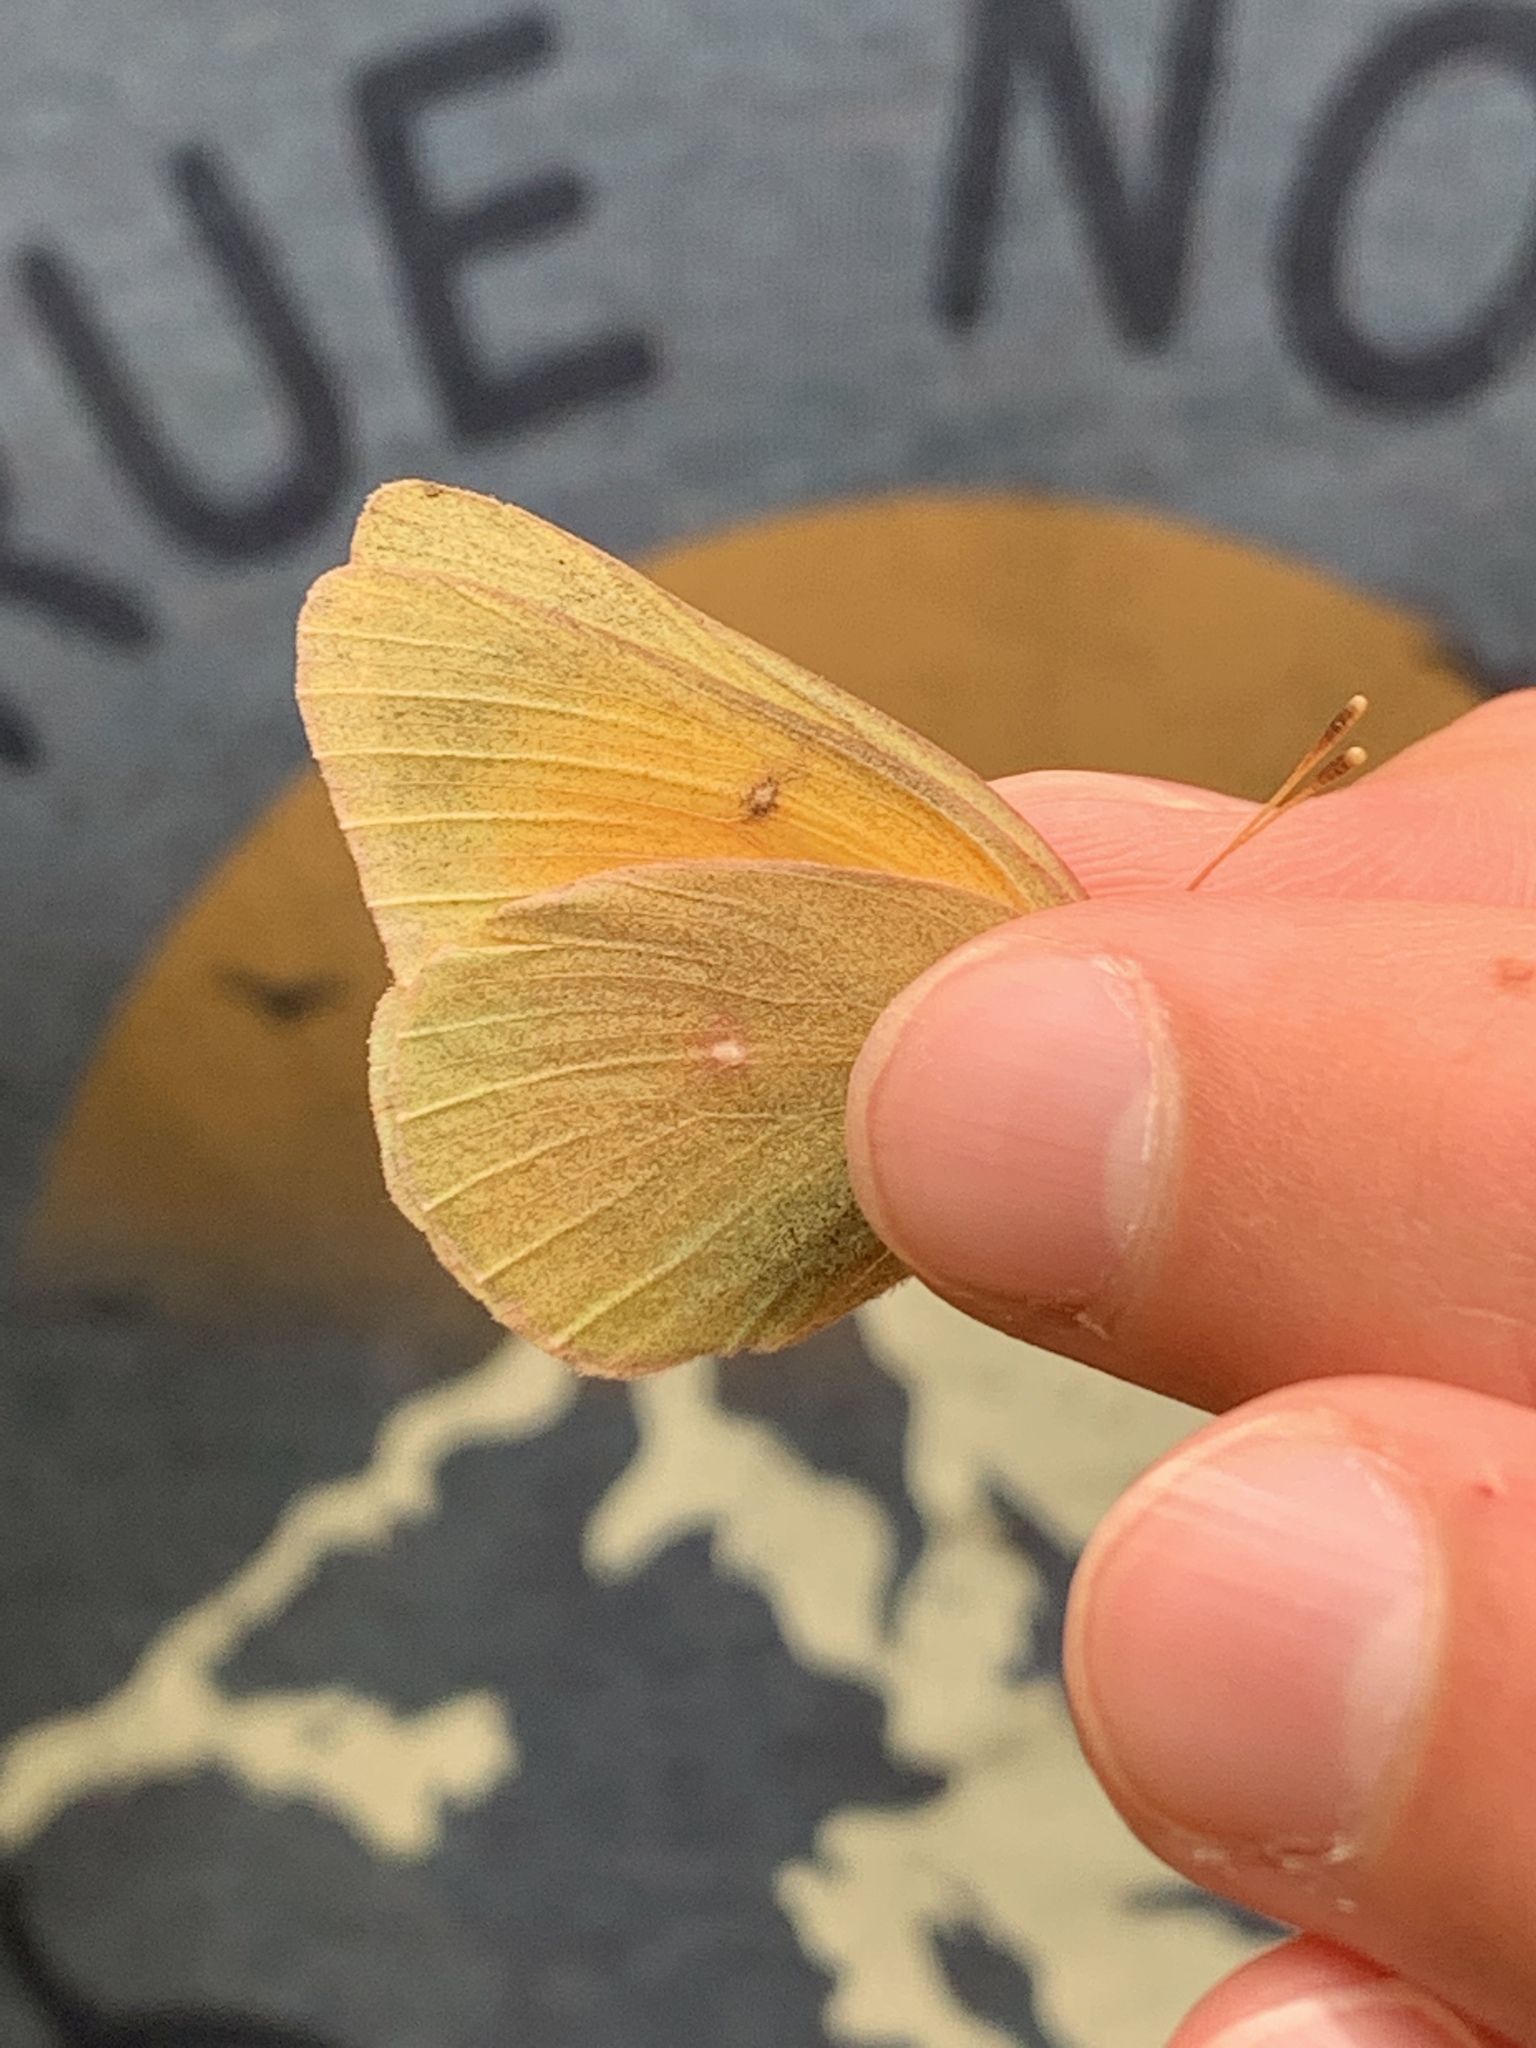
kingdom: Animalia
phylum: Arthropoda
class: Insecta
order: Lepidoptera
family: Pieridae
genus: Colias
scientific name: Colias christina
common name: Christina sulphur
